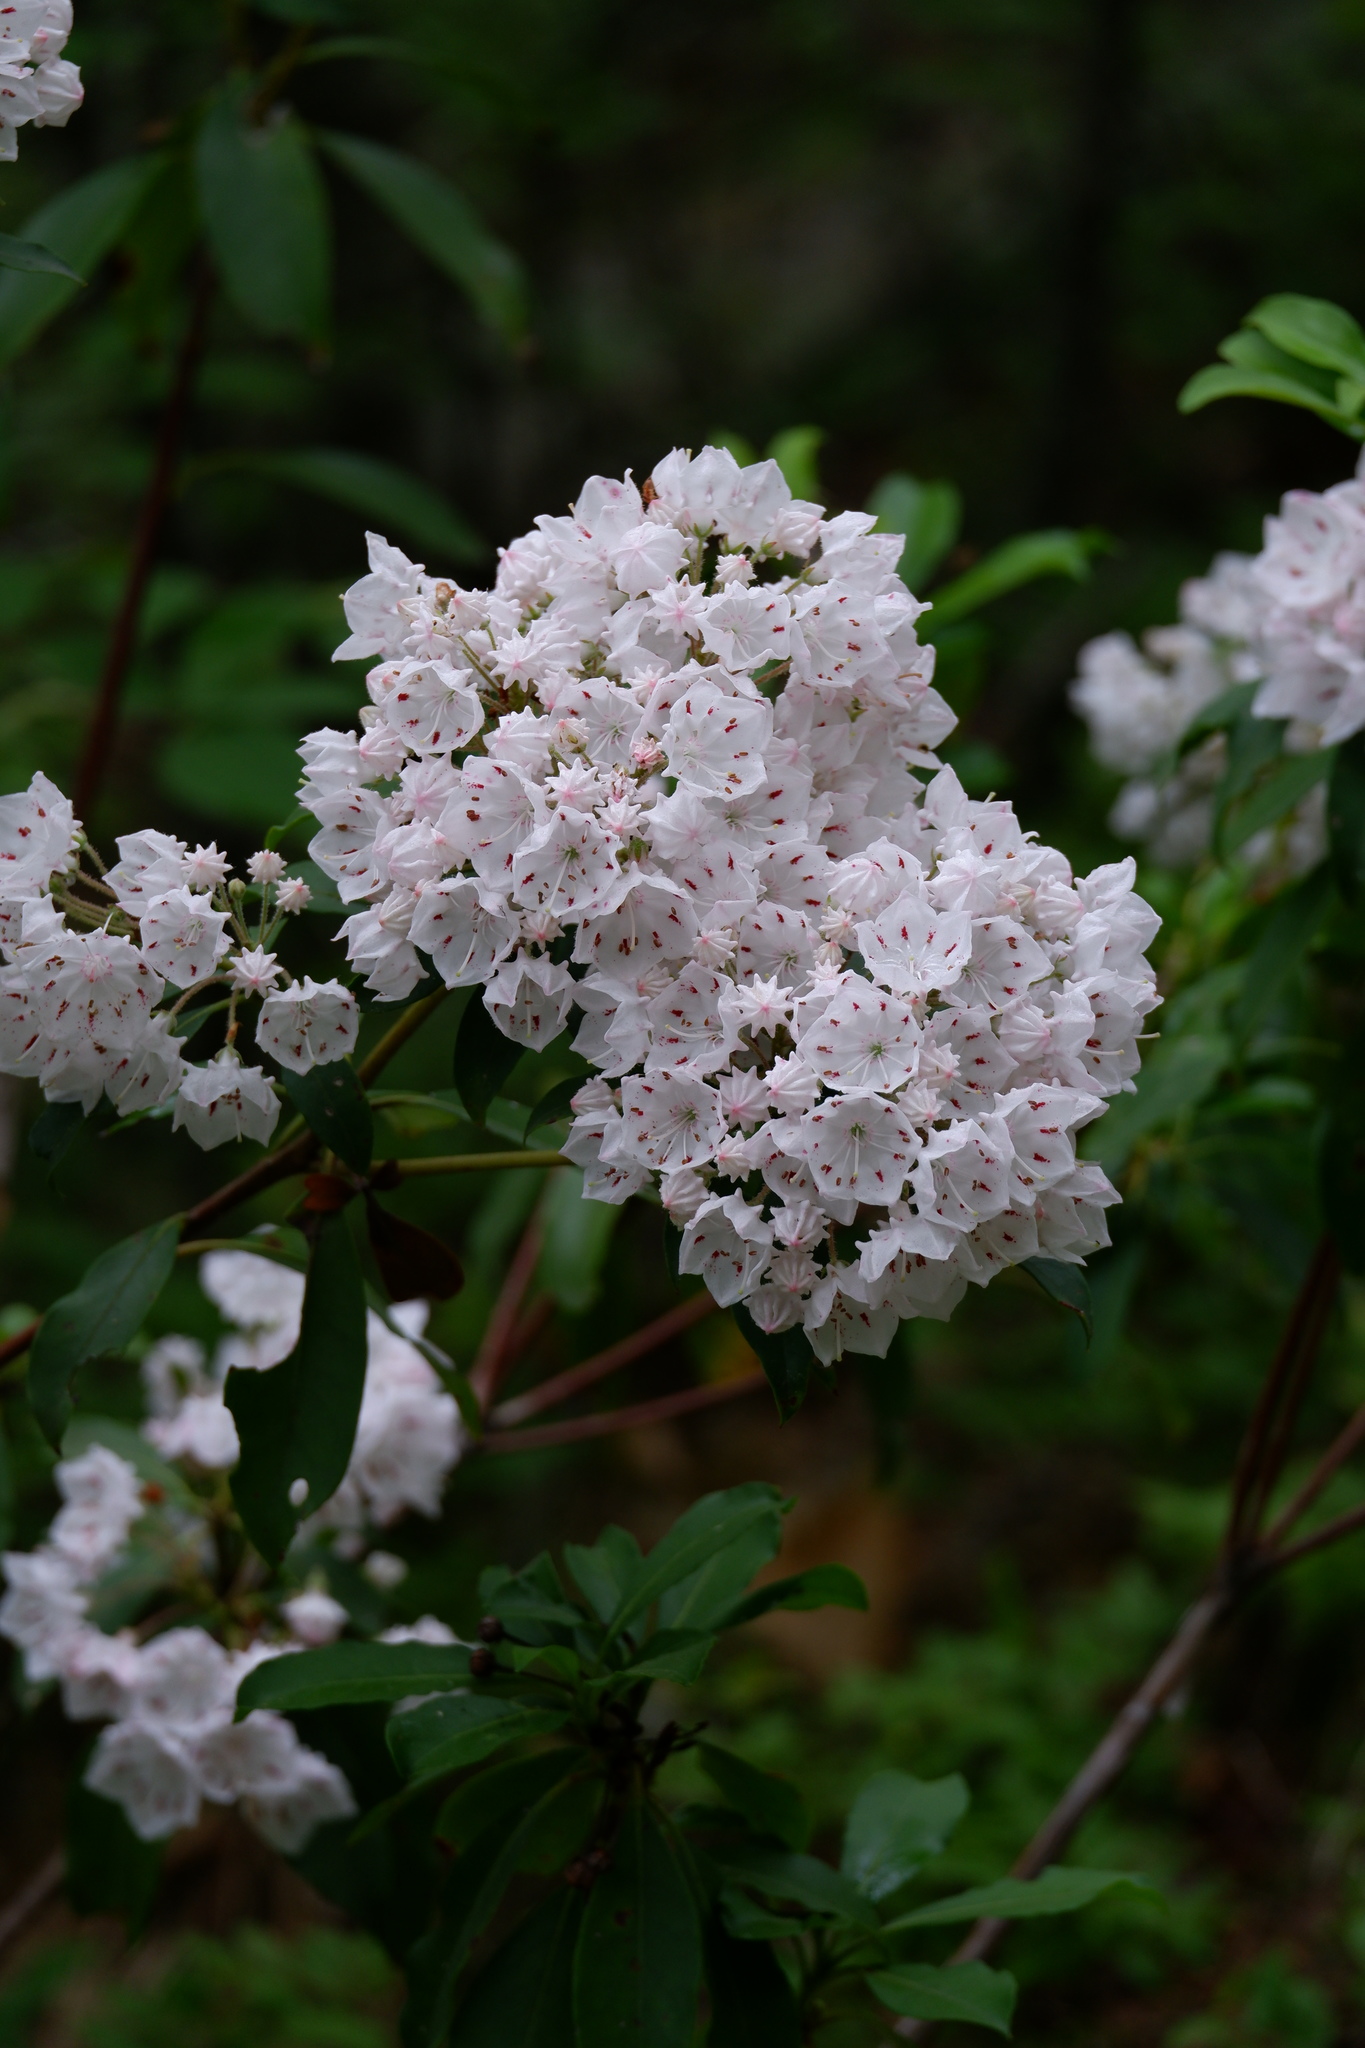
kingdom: Plantae
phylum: Tracheophyta
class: Magnoliopsida
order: Ericales
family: Ericaceae
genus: Kalmia
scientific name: Kalmia latifolia
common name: Mountain-laurel
